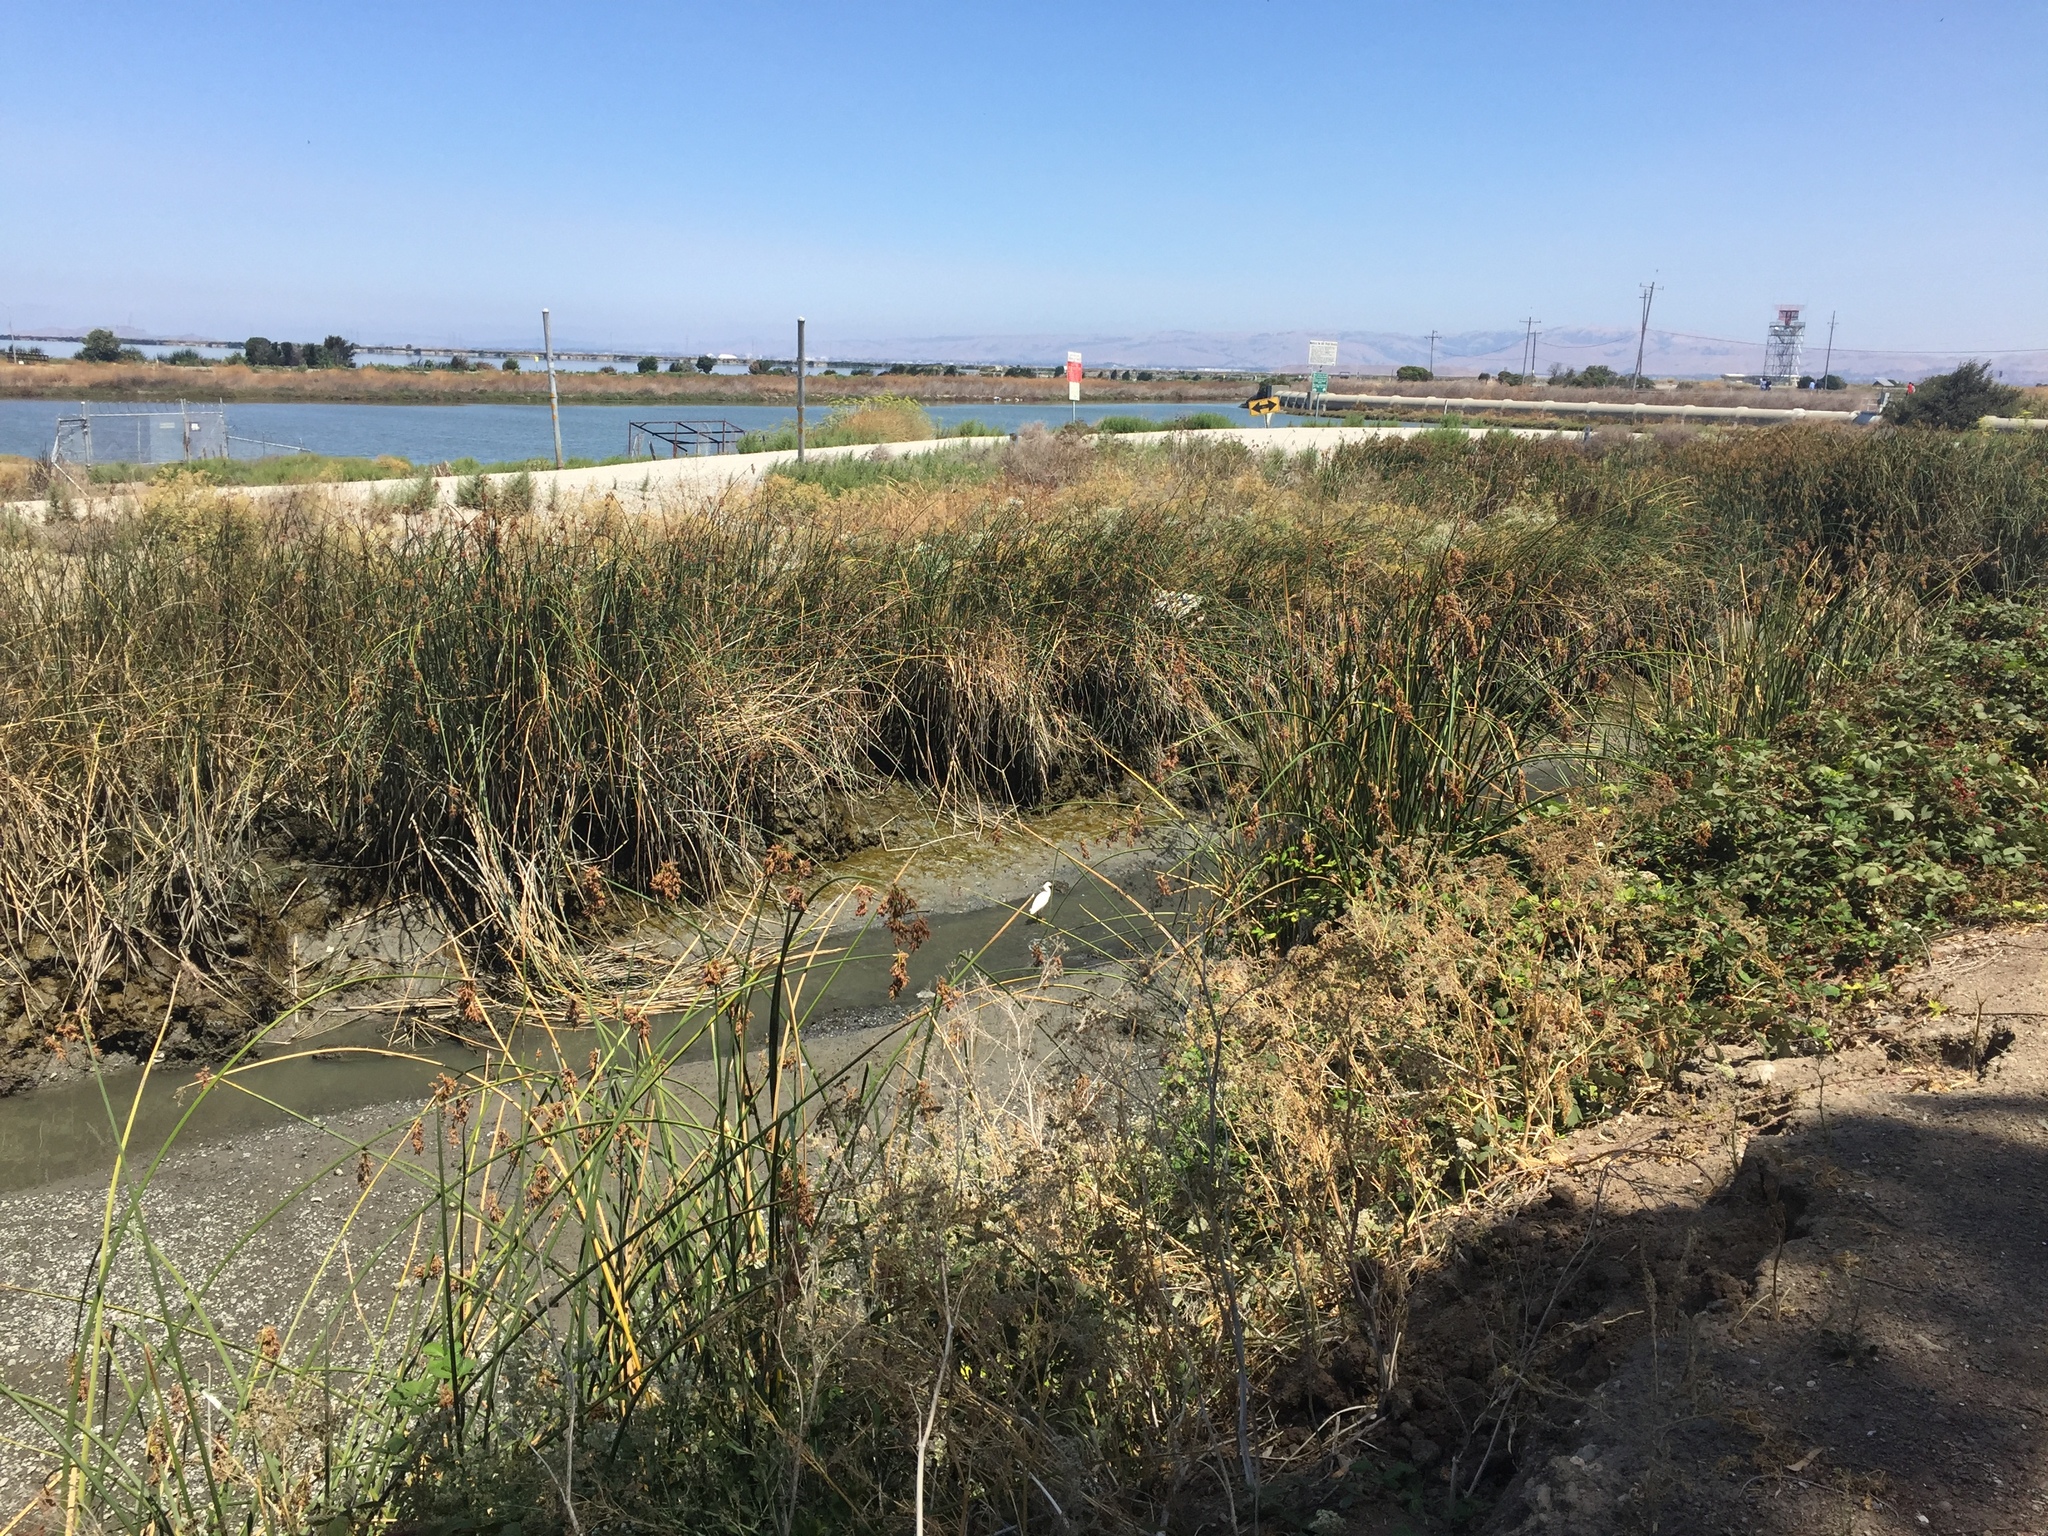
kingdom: Animalia
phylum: Chordata
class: Aves
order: Pelecaniformes
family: Ardeidae
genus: Egretta
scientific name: Egretta thula
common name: Snowy egret
